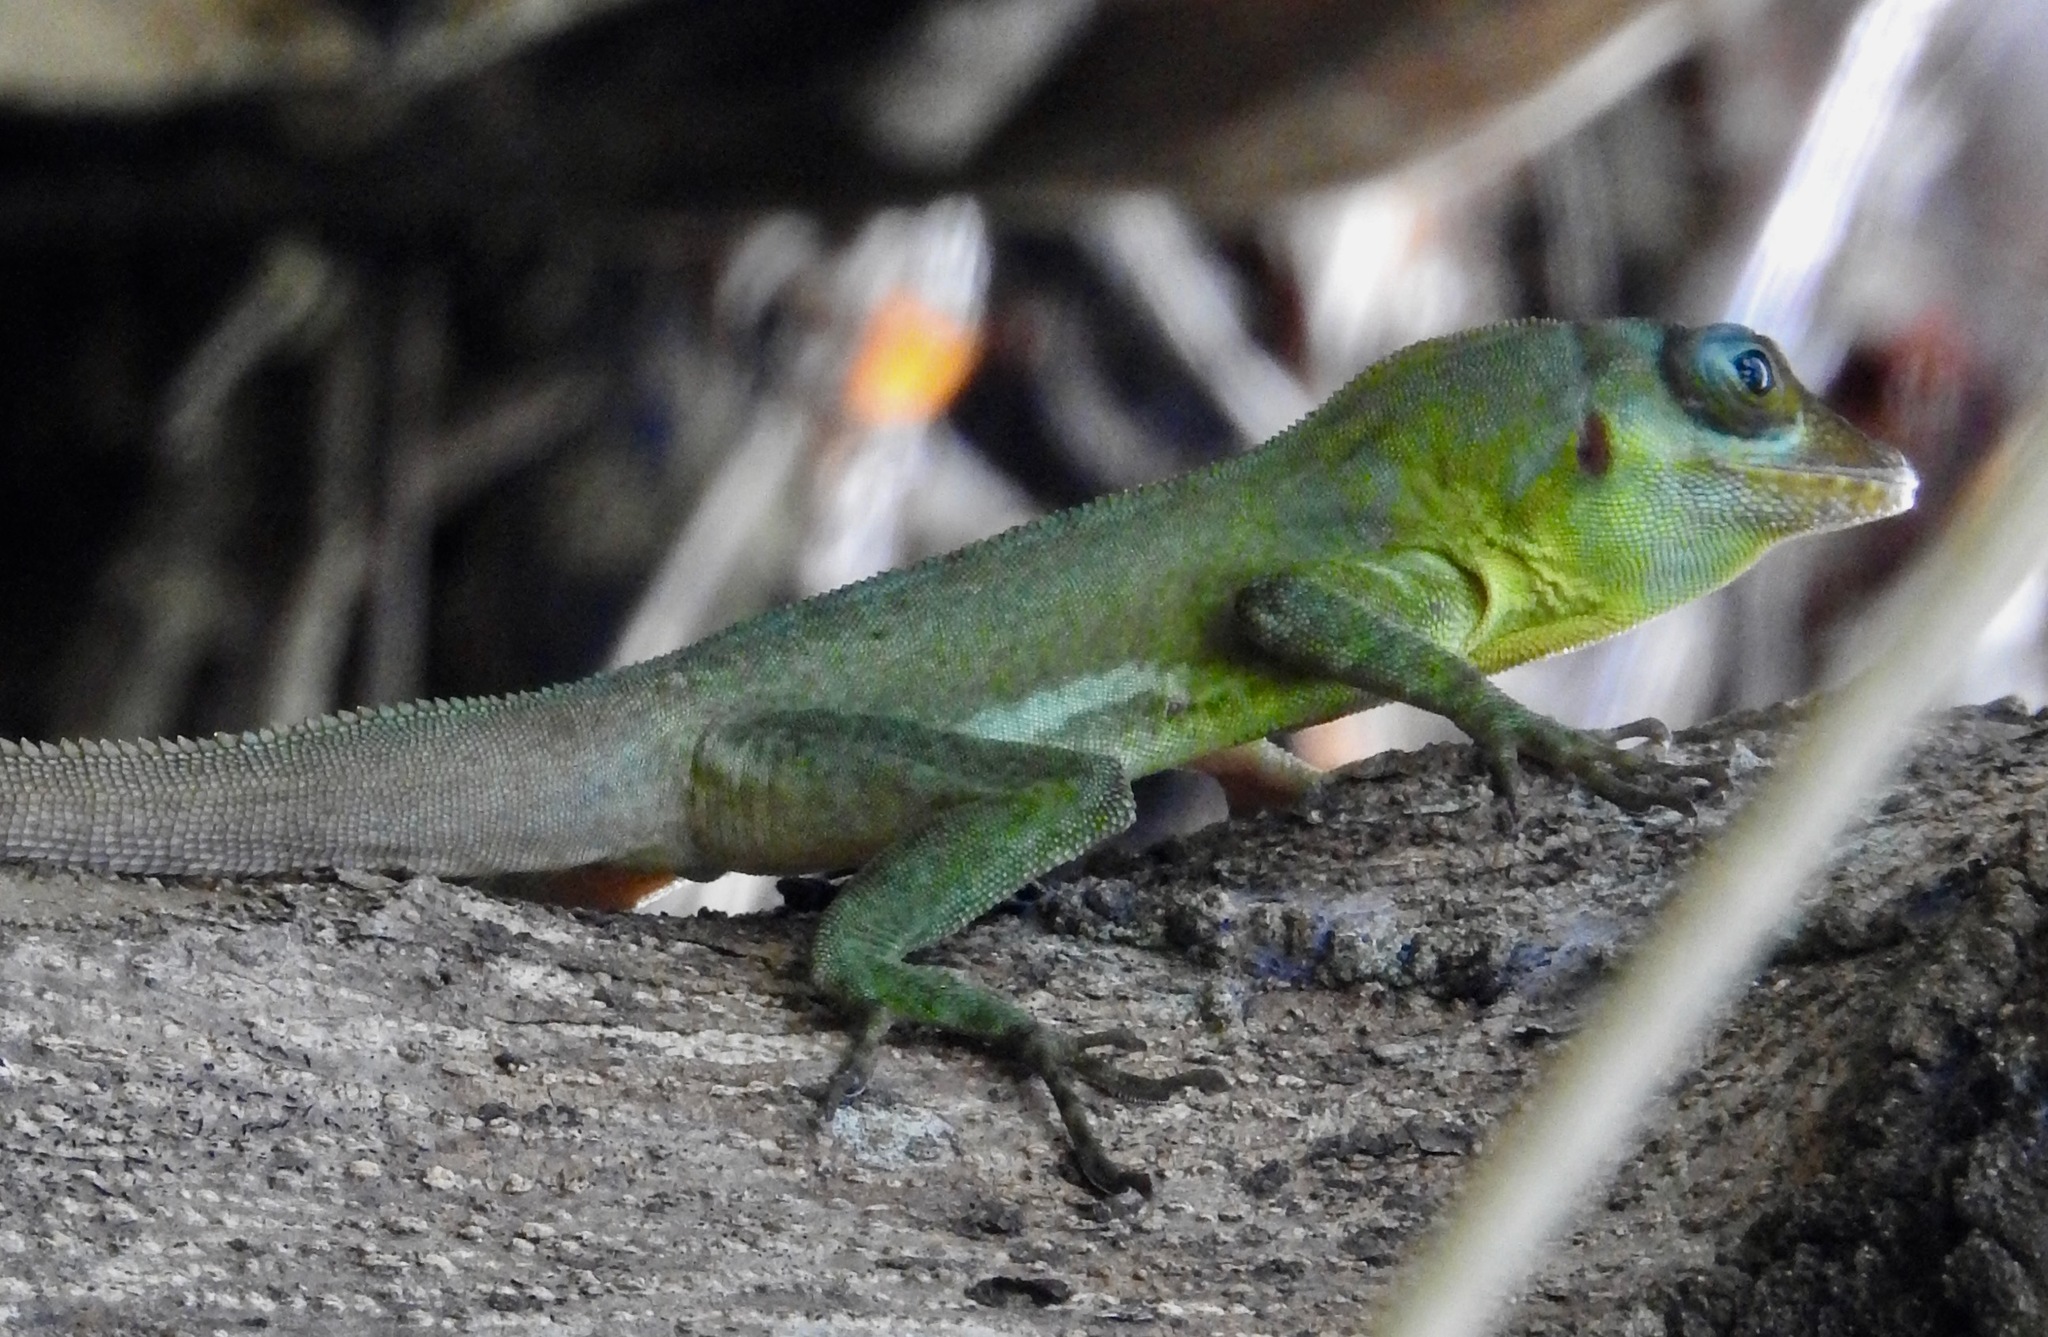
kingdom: Animalia
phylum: Chordata
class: Squamata
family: Dactyloidae
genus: Anolis
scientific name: Anolis richardii
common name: Grenada tree anole
